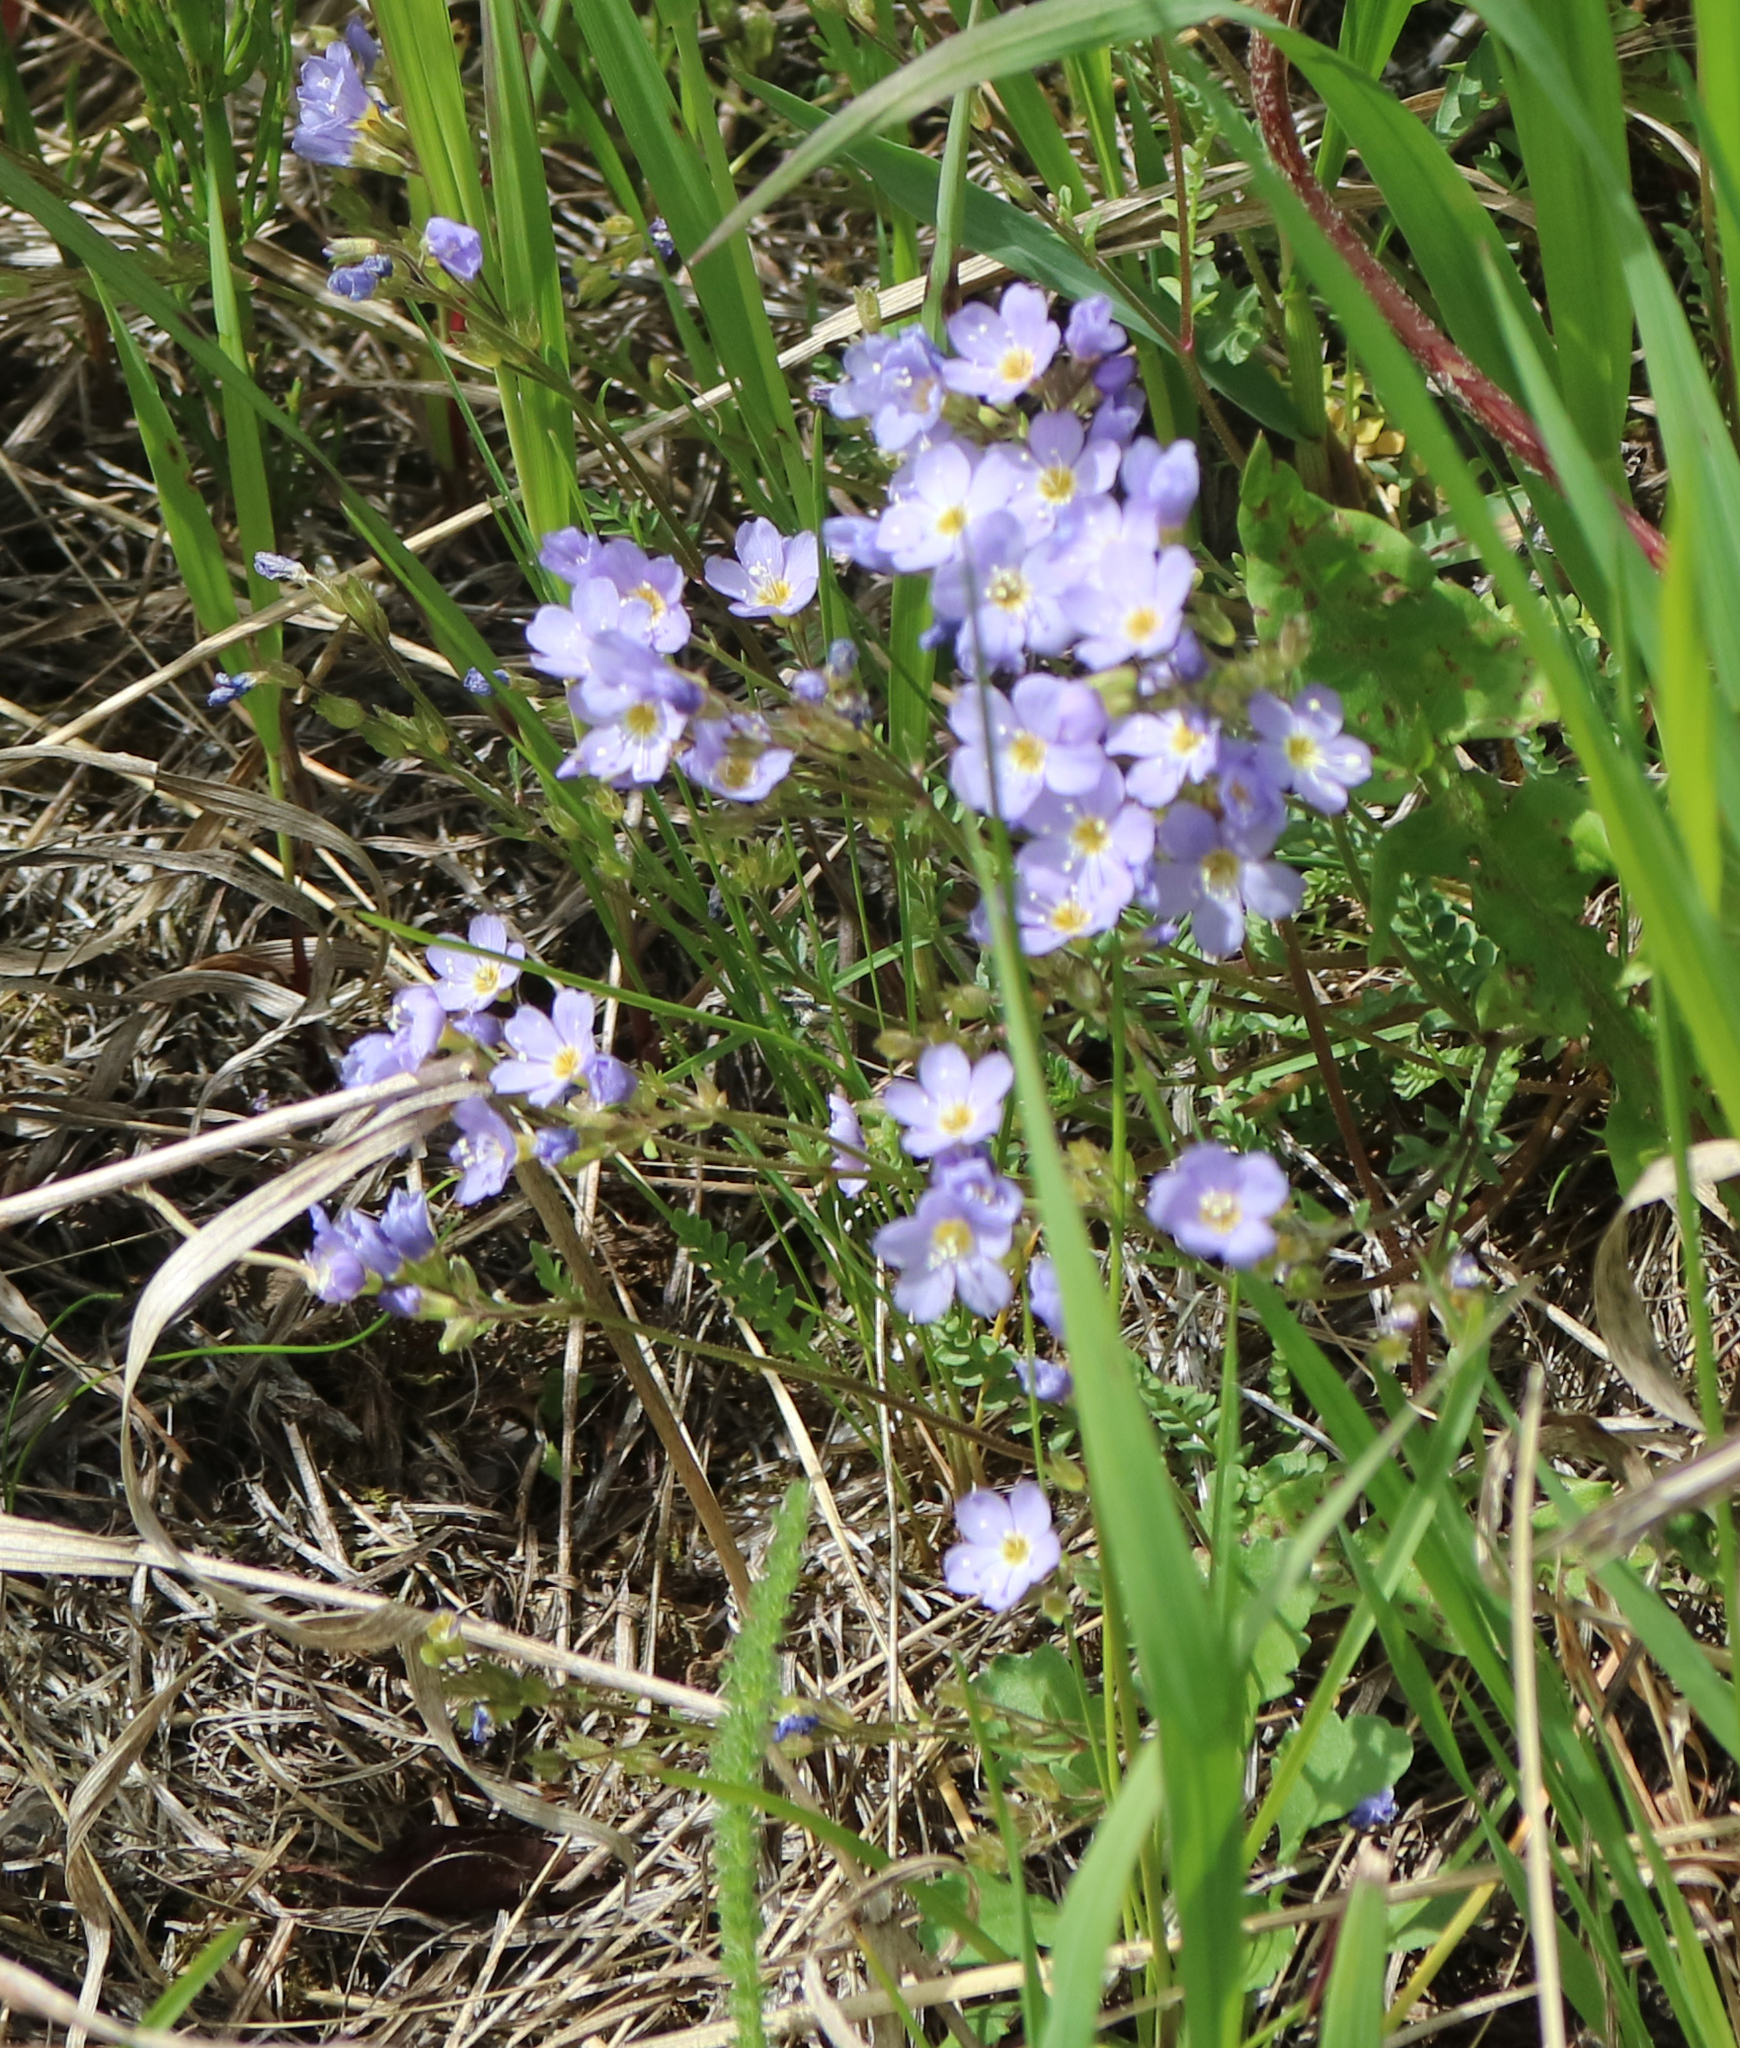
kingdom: Plantae
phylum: Tracheophyta
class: Magnoliopsida
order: Ericales
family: Polemoniaceae
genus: Polemonium
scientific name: Polemonium pulcherrimum
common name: Short jacob's-ladder
